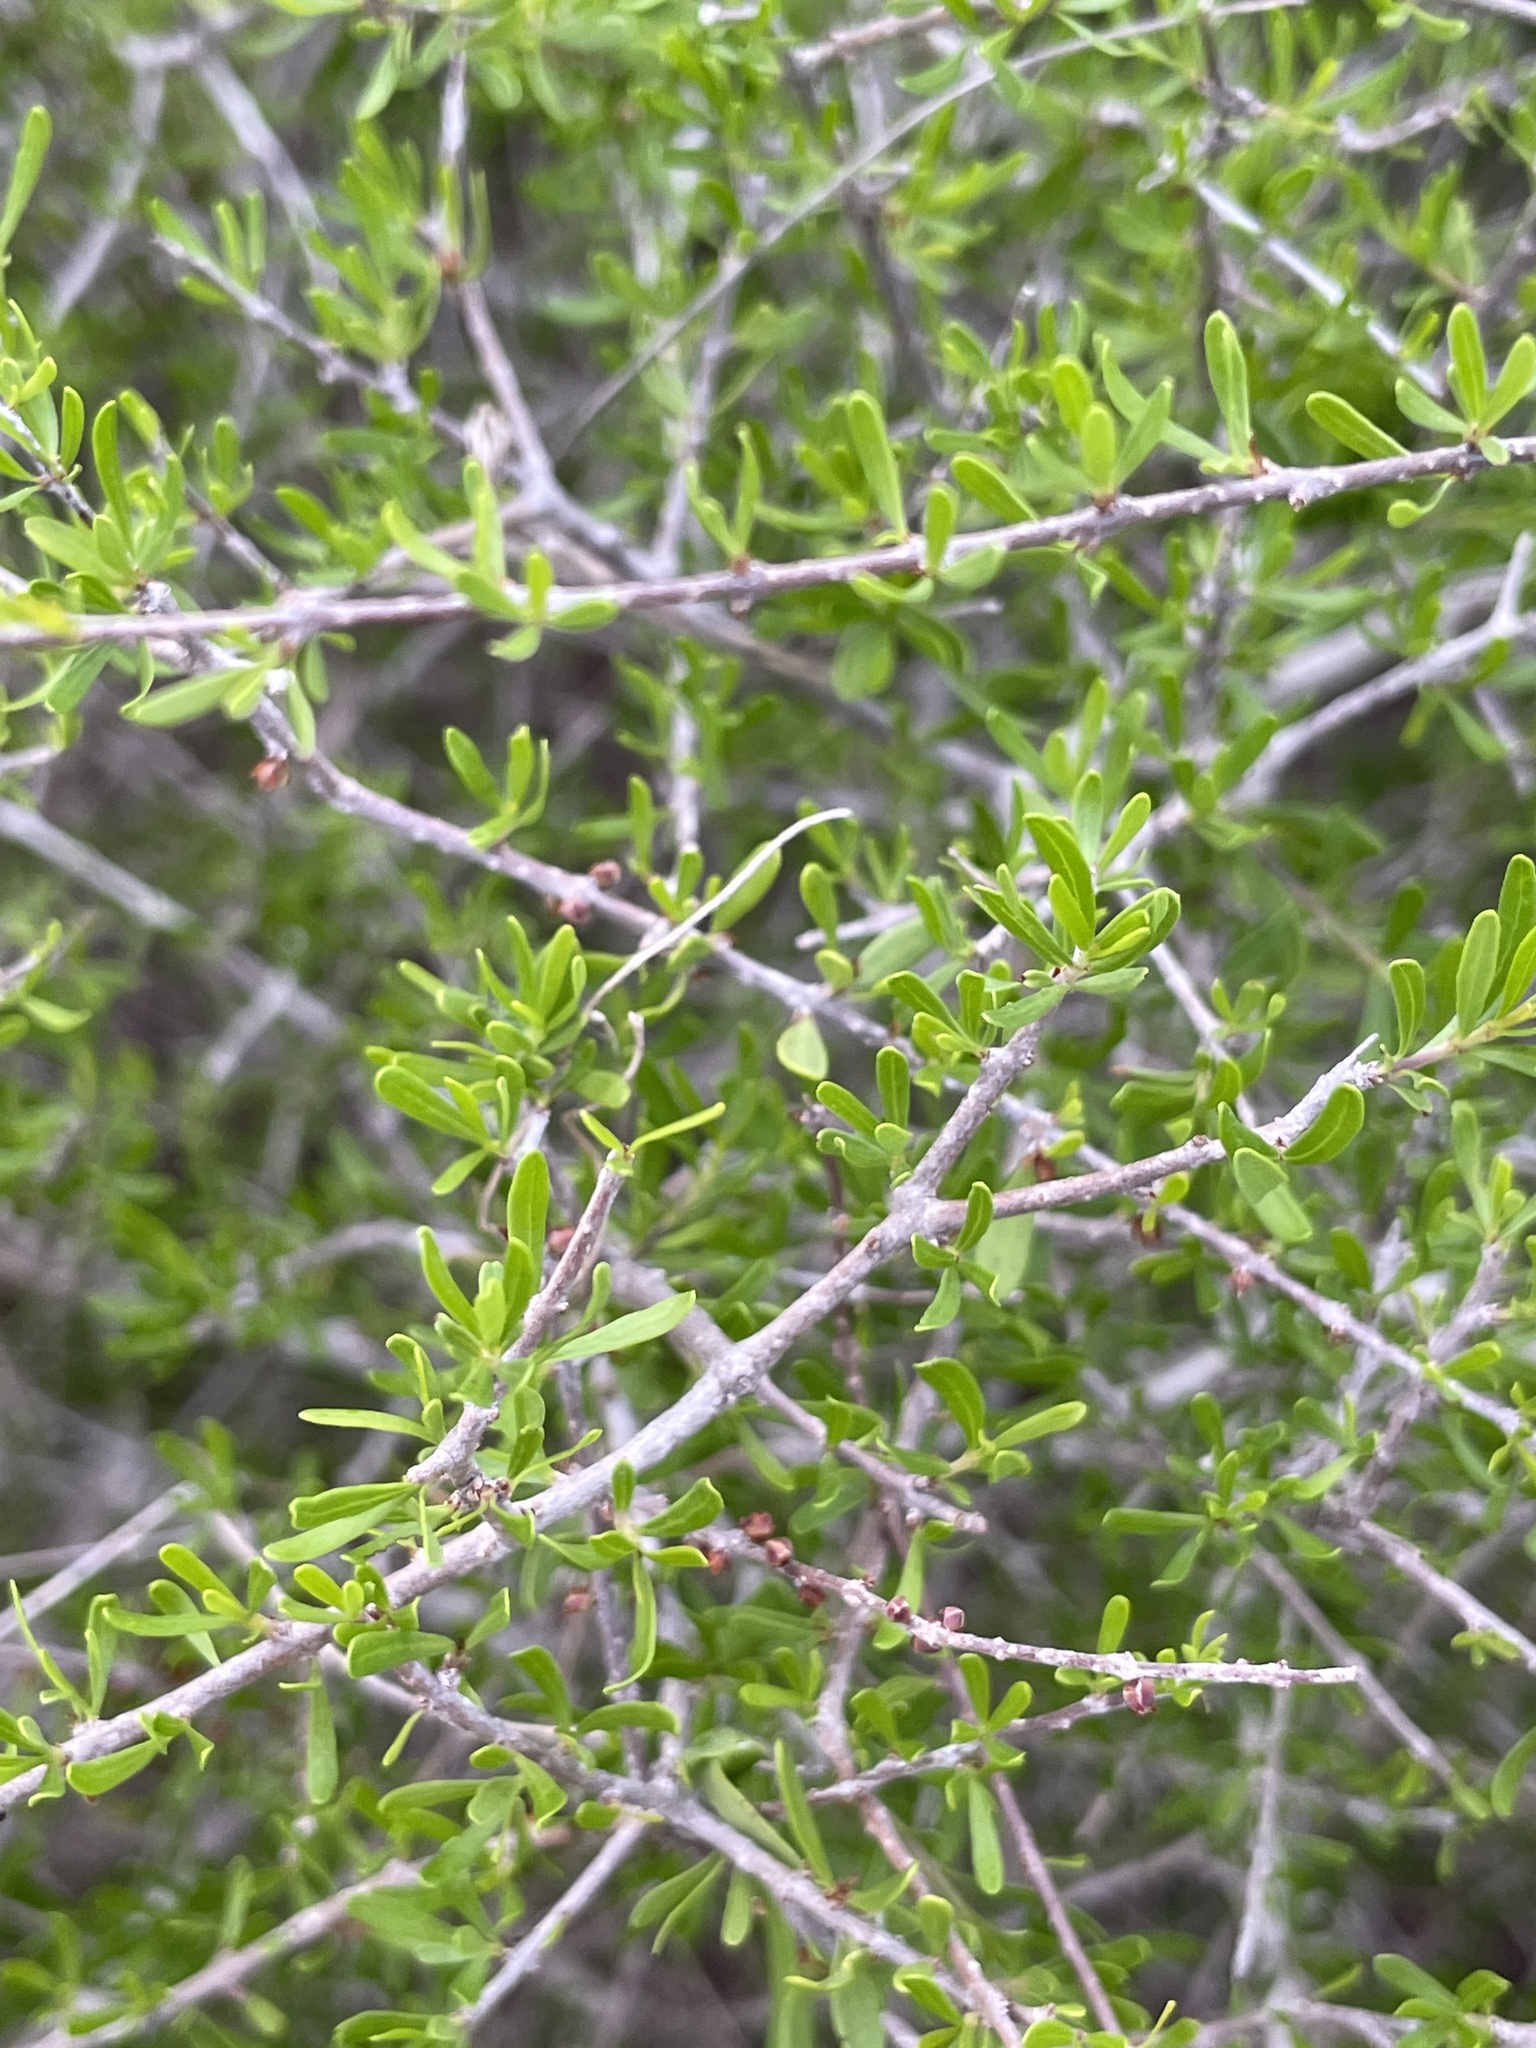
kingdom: Plantae
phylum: Tracheophyta
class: Magnoliopsida
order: Lamiales
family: Oleaceae
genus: Forestiera
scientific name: Forestiera angustifolia
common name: Elbowbush
